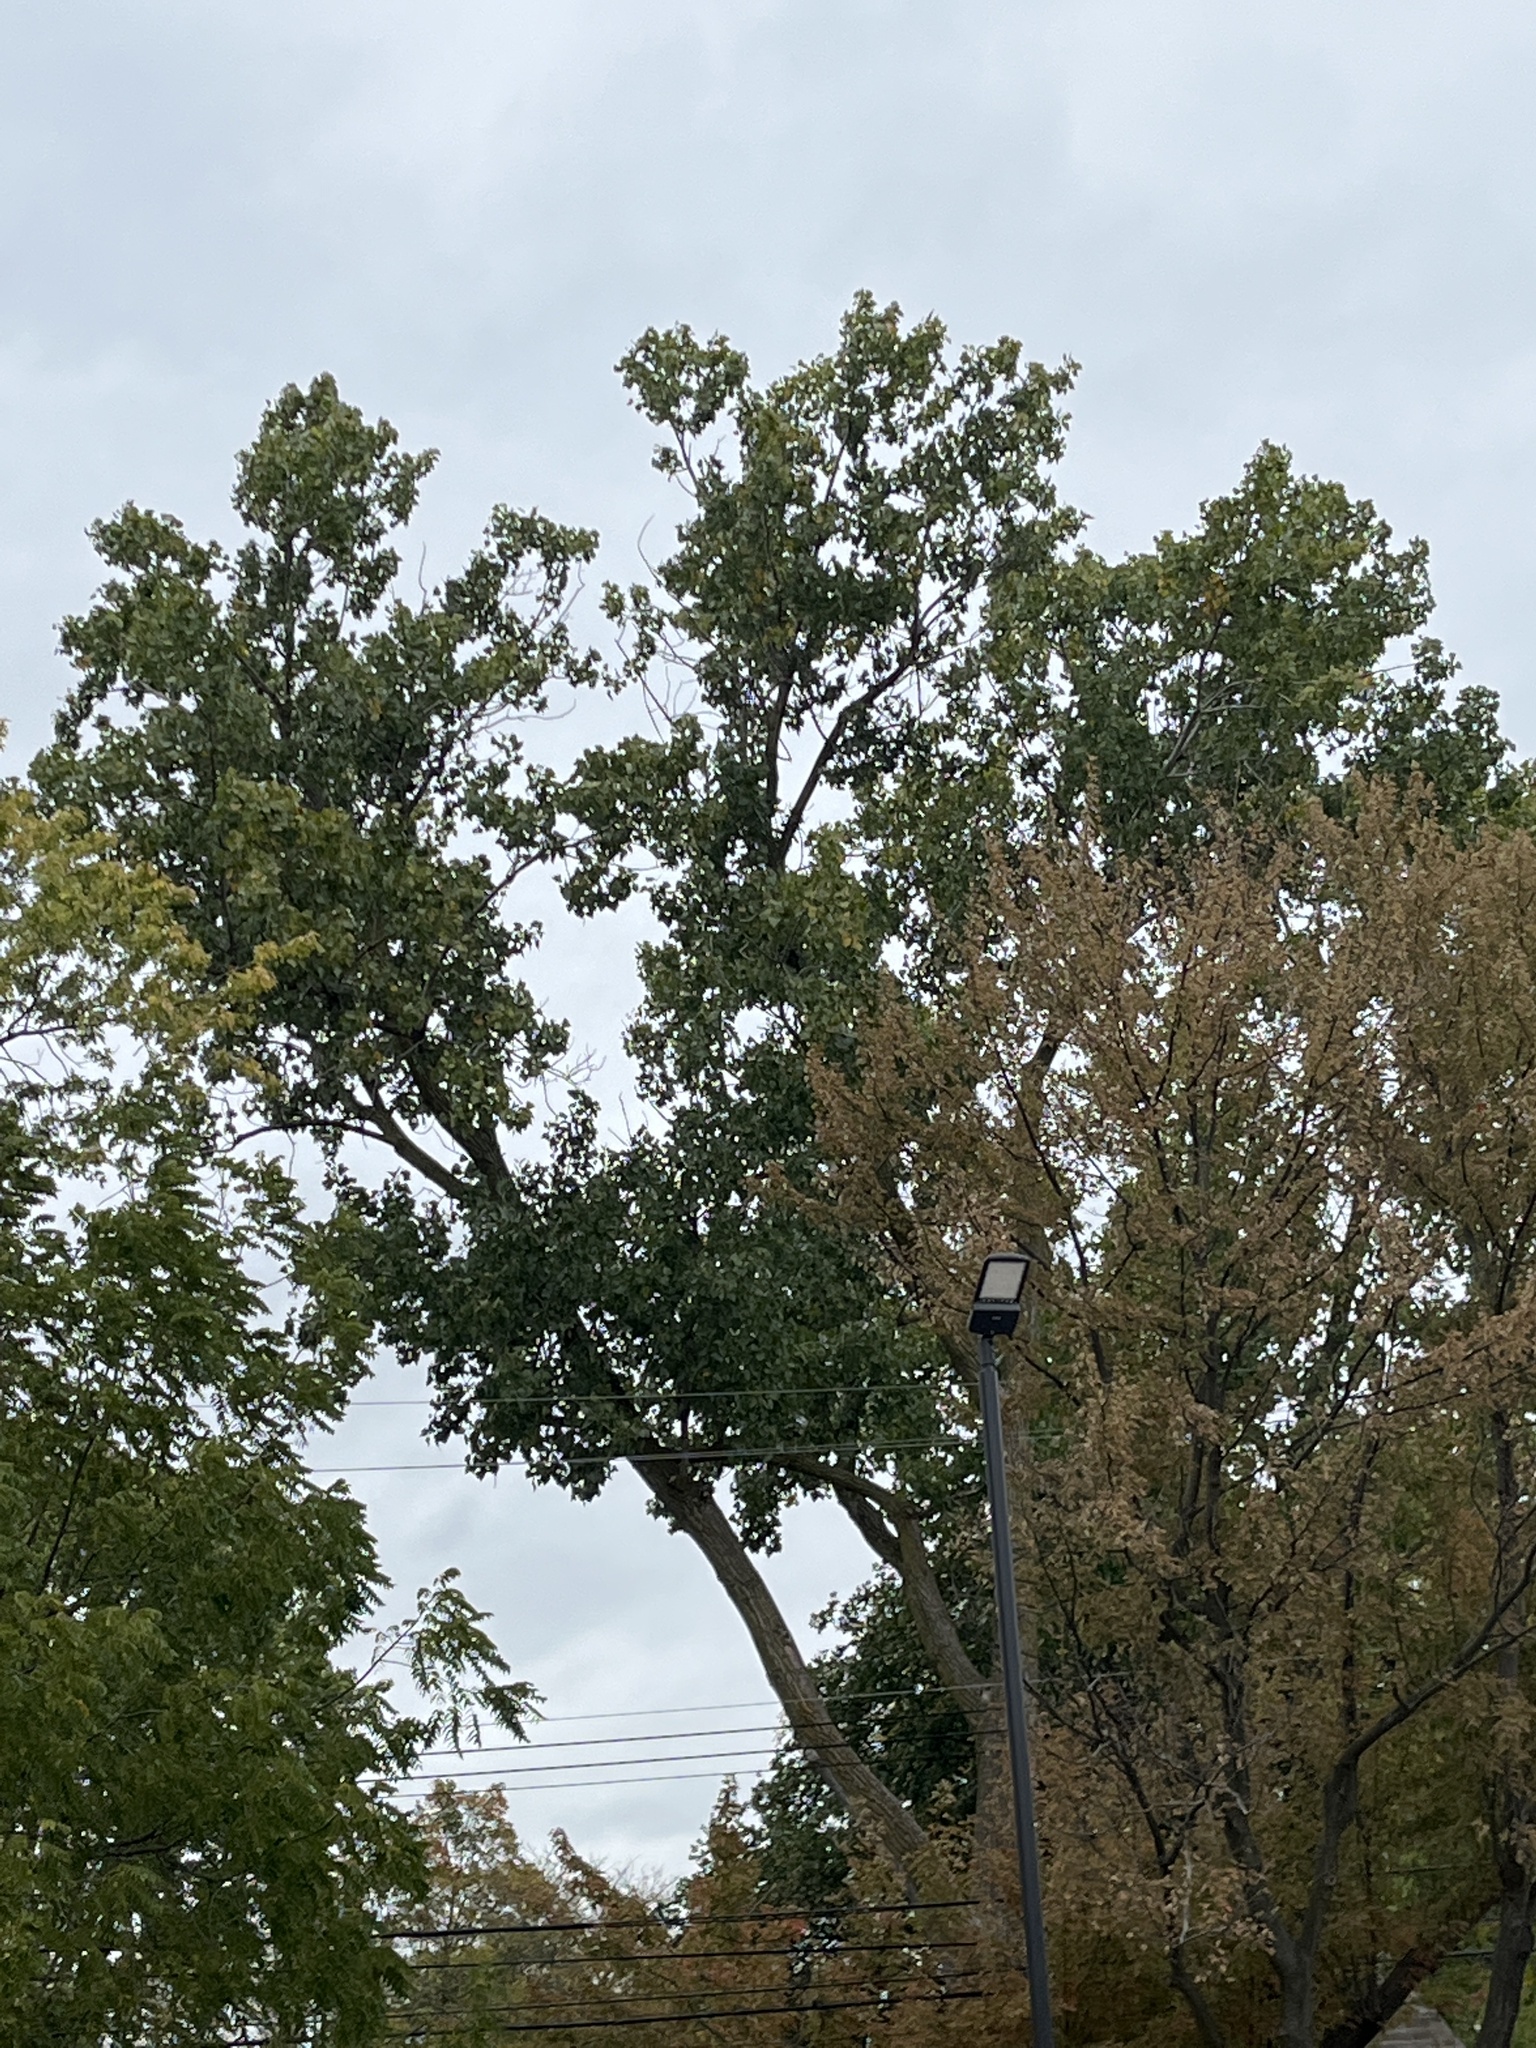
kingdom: Plantae
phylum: Tracheophyta
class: Magnoliopsida
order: Malpighiales
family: Salicaceae
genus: Populus
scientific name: Populus deltoides
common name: Eastern cottonwood
